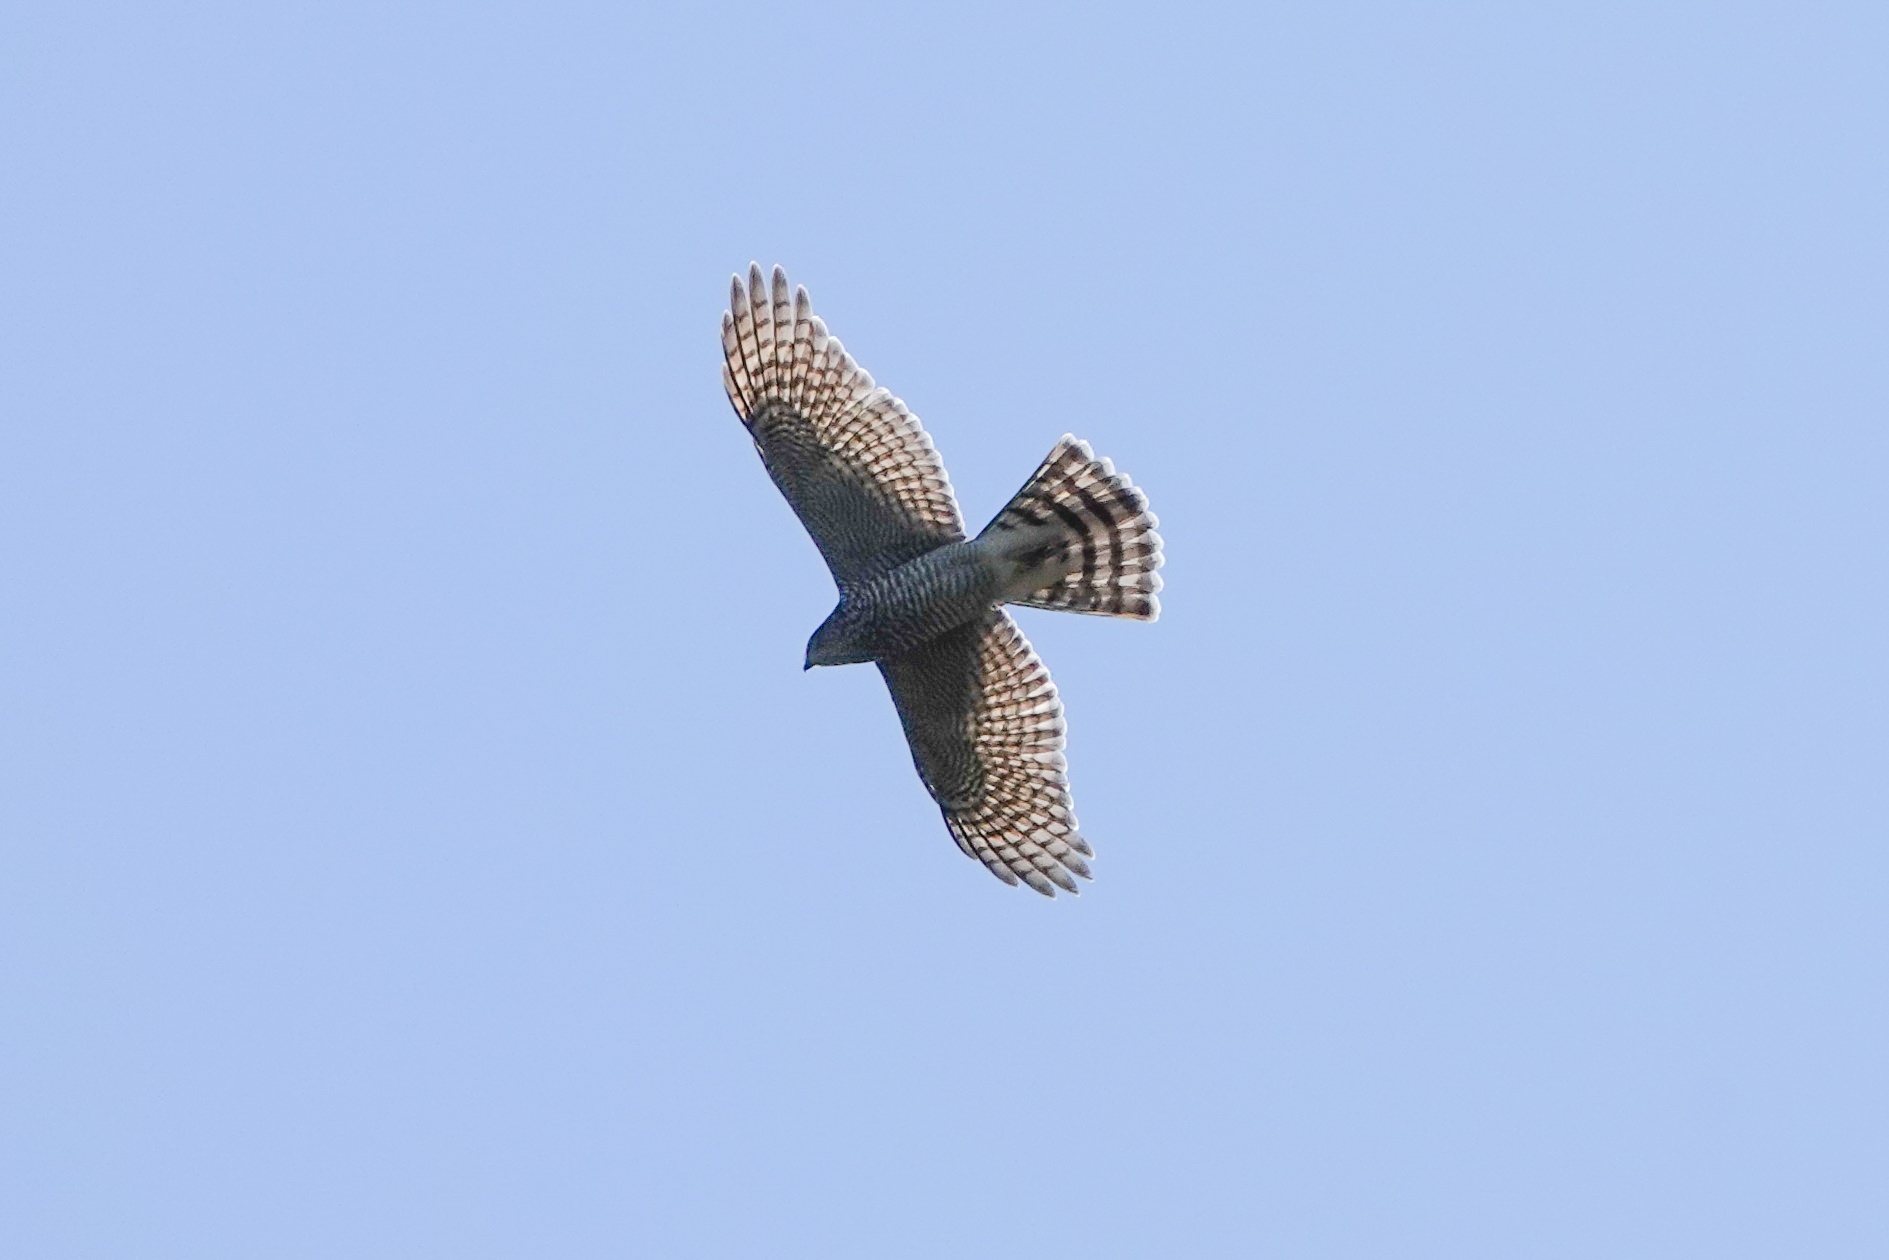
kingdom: Animalia
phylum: Chordata
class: Aves
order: Accipitriformes
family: Accipitridae
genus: Accipiter
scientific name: Accipiter nisus
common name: Eurasian sparrowhawk
